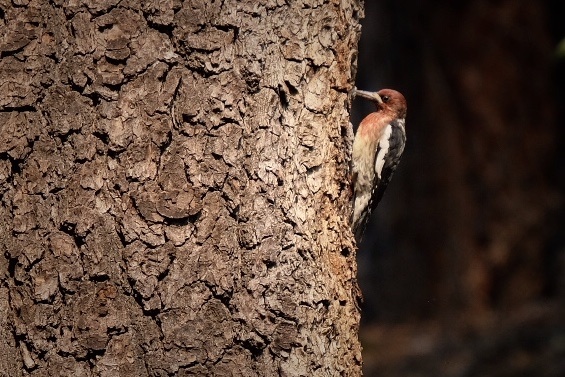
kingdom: Animalia
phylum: Chordata
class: Aves
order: Piciformes
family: Picidae
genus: Sphyrapicus
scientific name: Sphyrapicus ruber
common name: Red-breasted sapsucker
